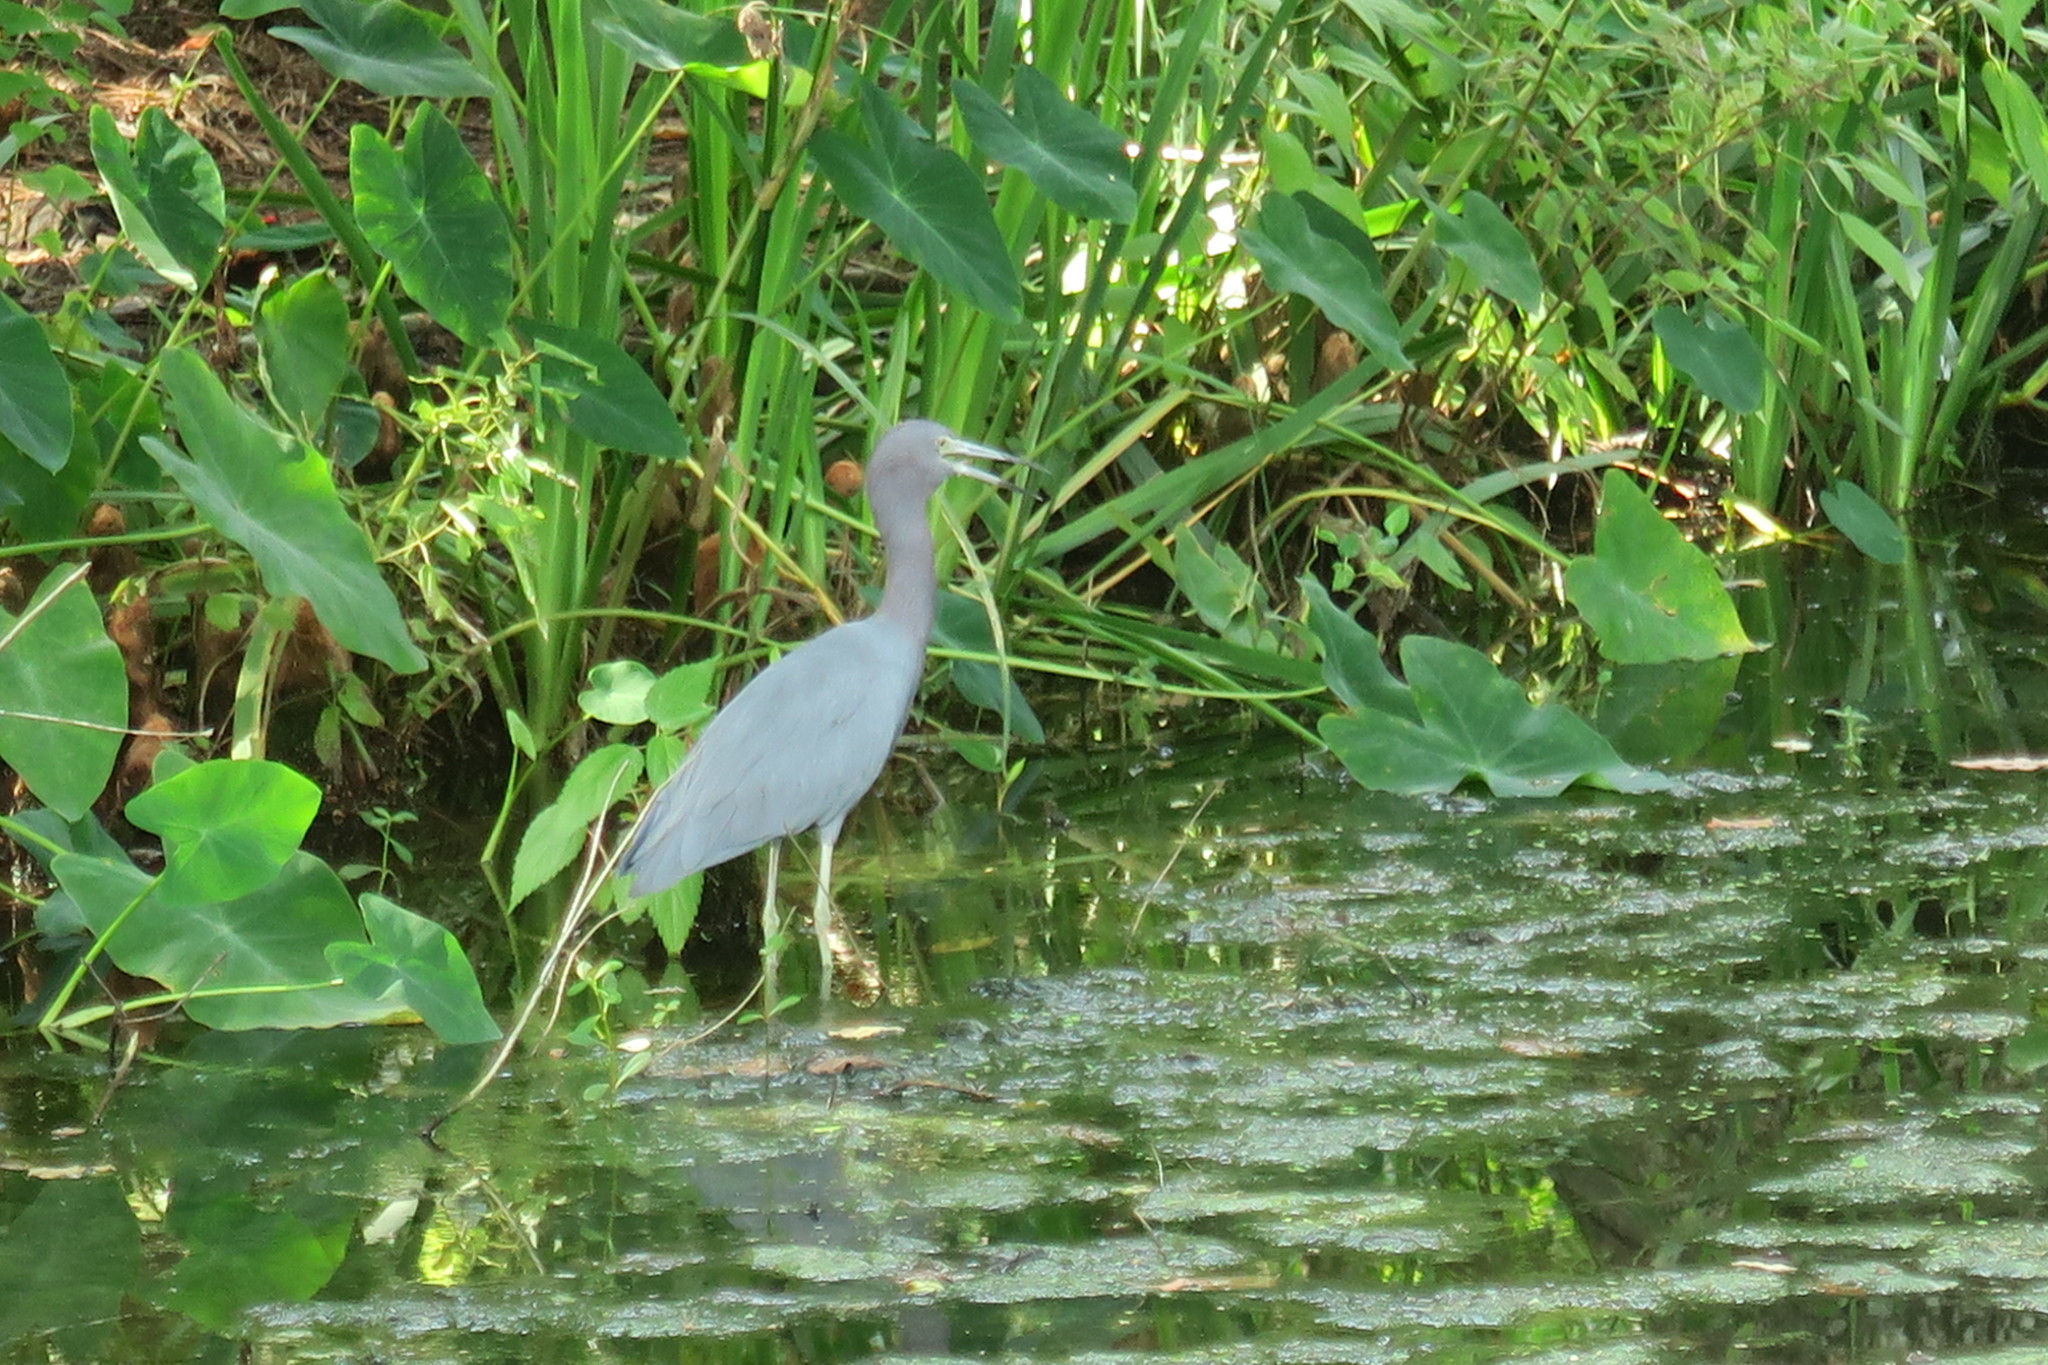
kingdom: Animalia
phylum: Chordata
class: Aves
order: Pelecaniformes
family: Ardeidae
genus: Egretta
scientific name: Egretta caerulea
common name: Little blue heron
